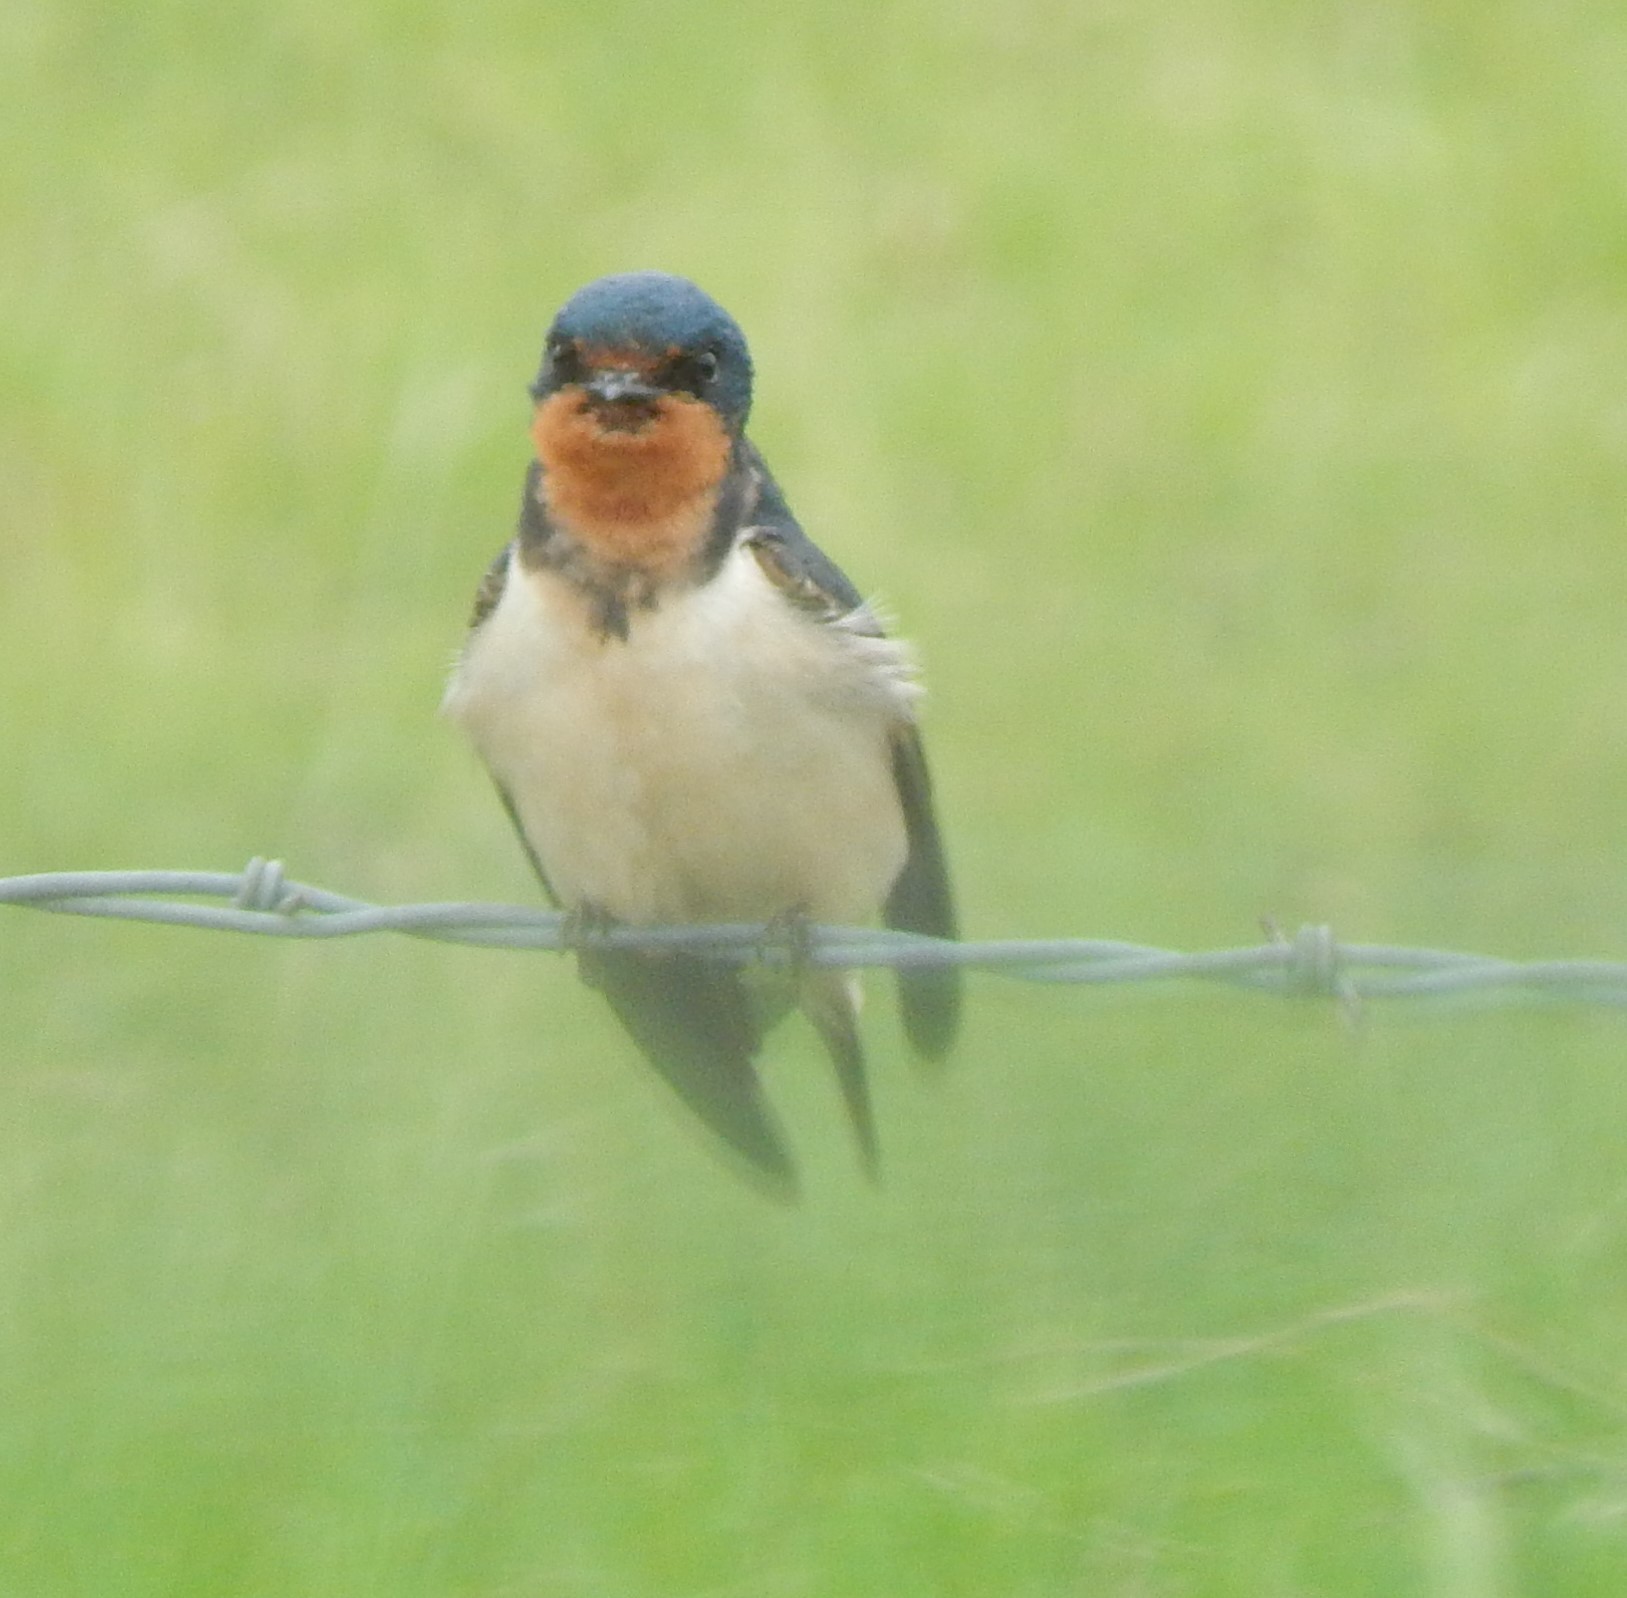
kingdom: Animalia
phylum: Chordata
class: Aves
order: Passeriformes
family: Hirundinidae
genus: Hirundo
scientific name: Hirundo rustica
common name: Barn swallow
